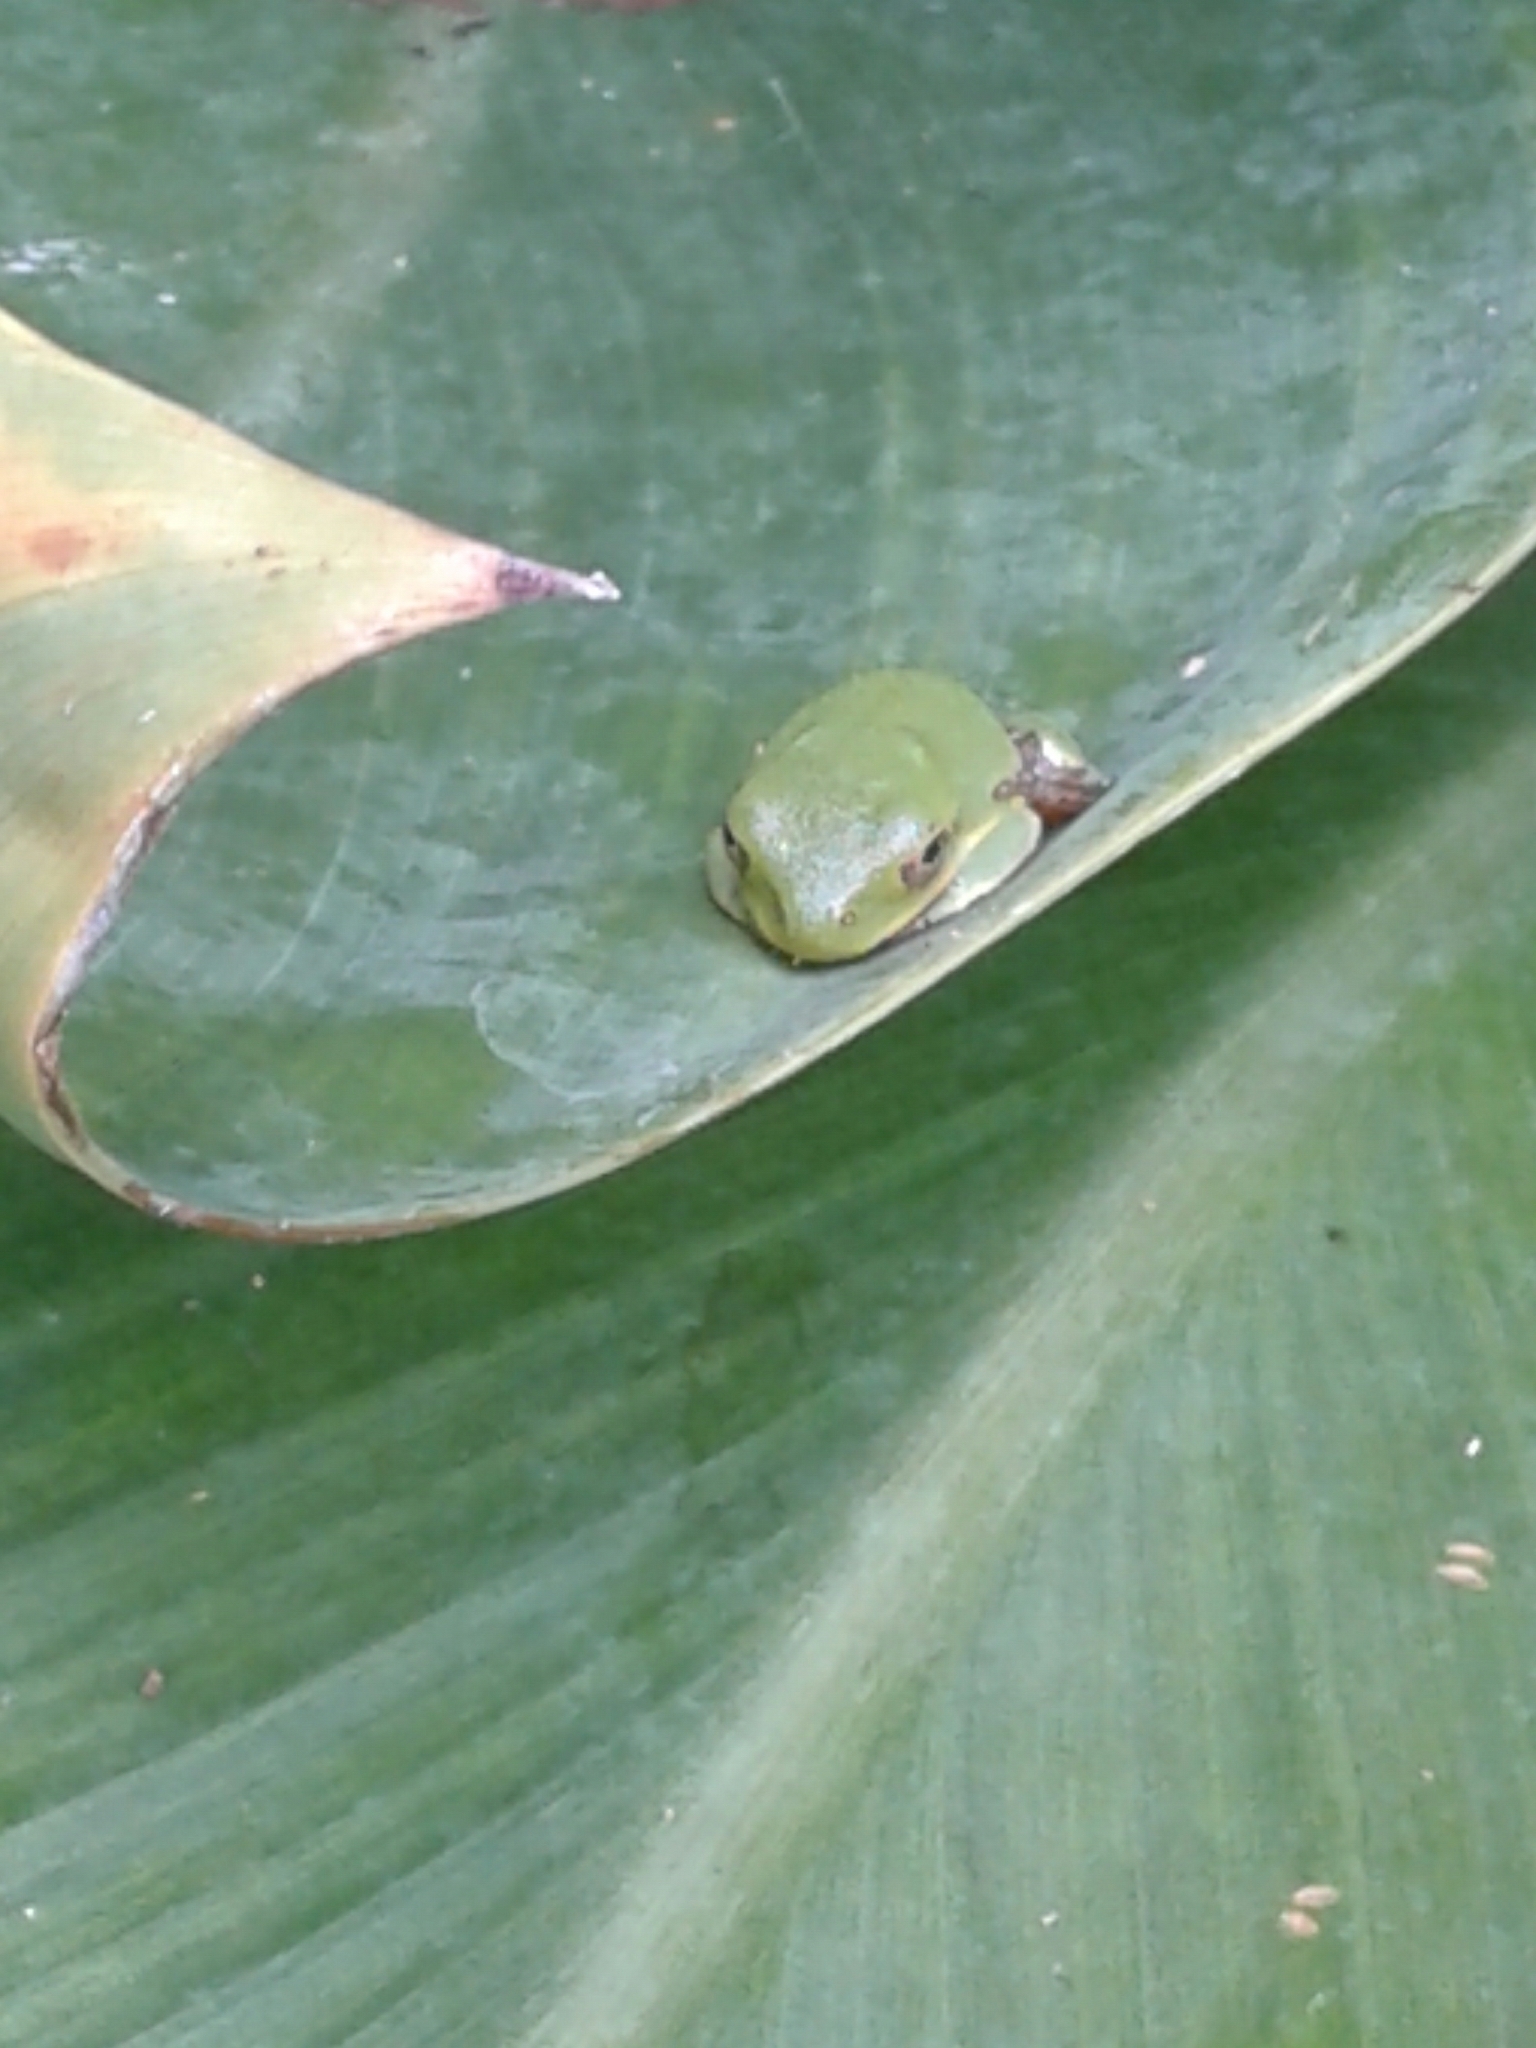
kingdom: Animalia
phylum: Chordata
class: Amphibia
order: Anura
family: Hylidae
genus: Dryophytes
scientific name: Dryophytes gratiosus
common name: Barking treefrog
